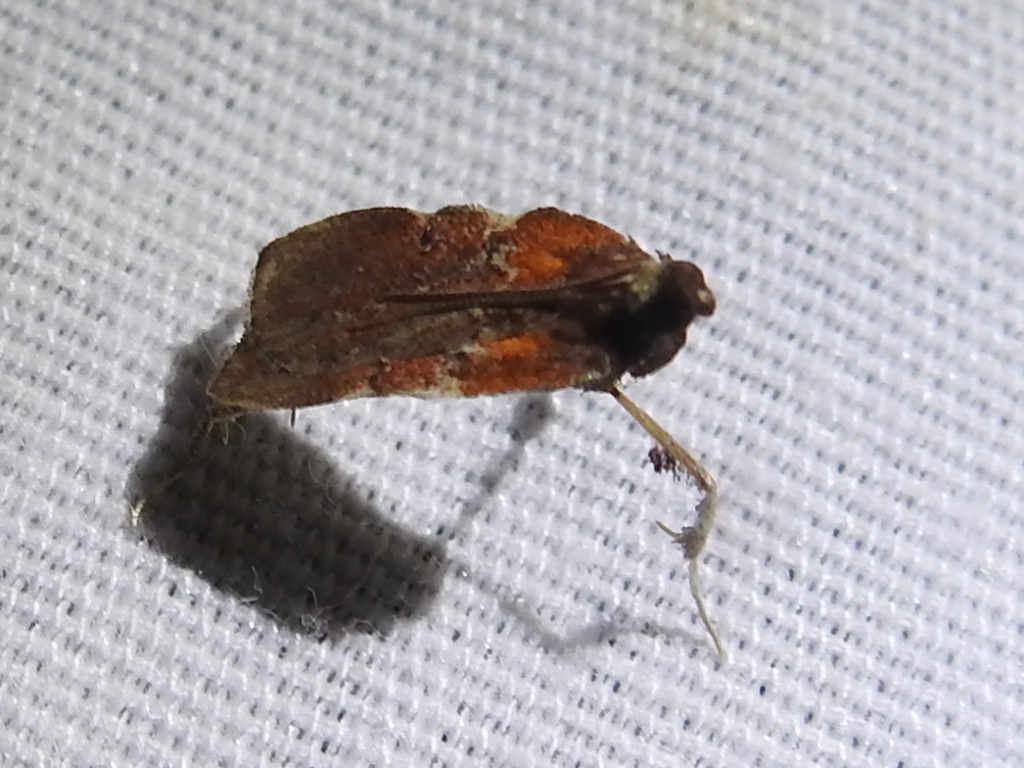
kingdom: Animalia
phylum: Arthropoda
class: Insecta
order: Lepidoptera
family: Pyralidae
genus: Galasa
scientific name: Galasa nigrinodis
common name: Boxwood leaftier moth
